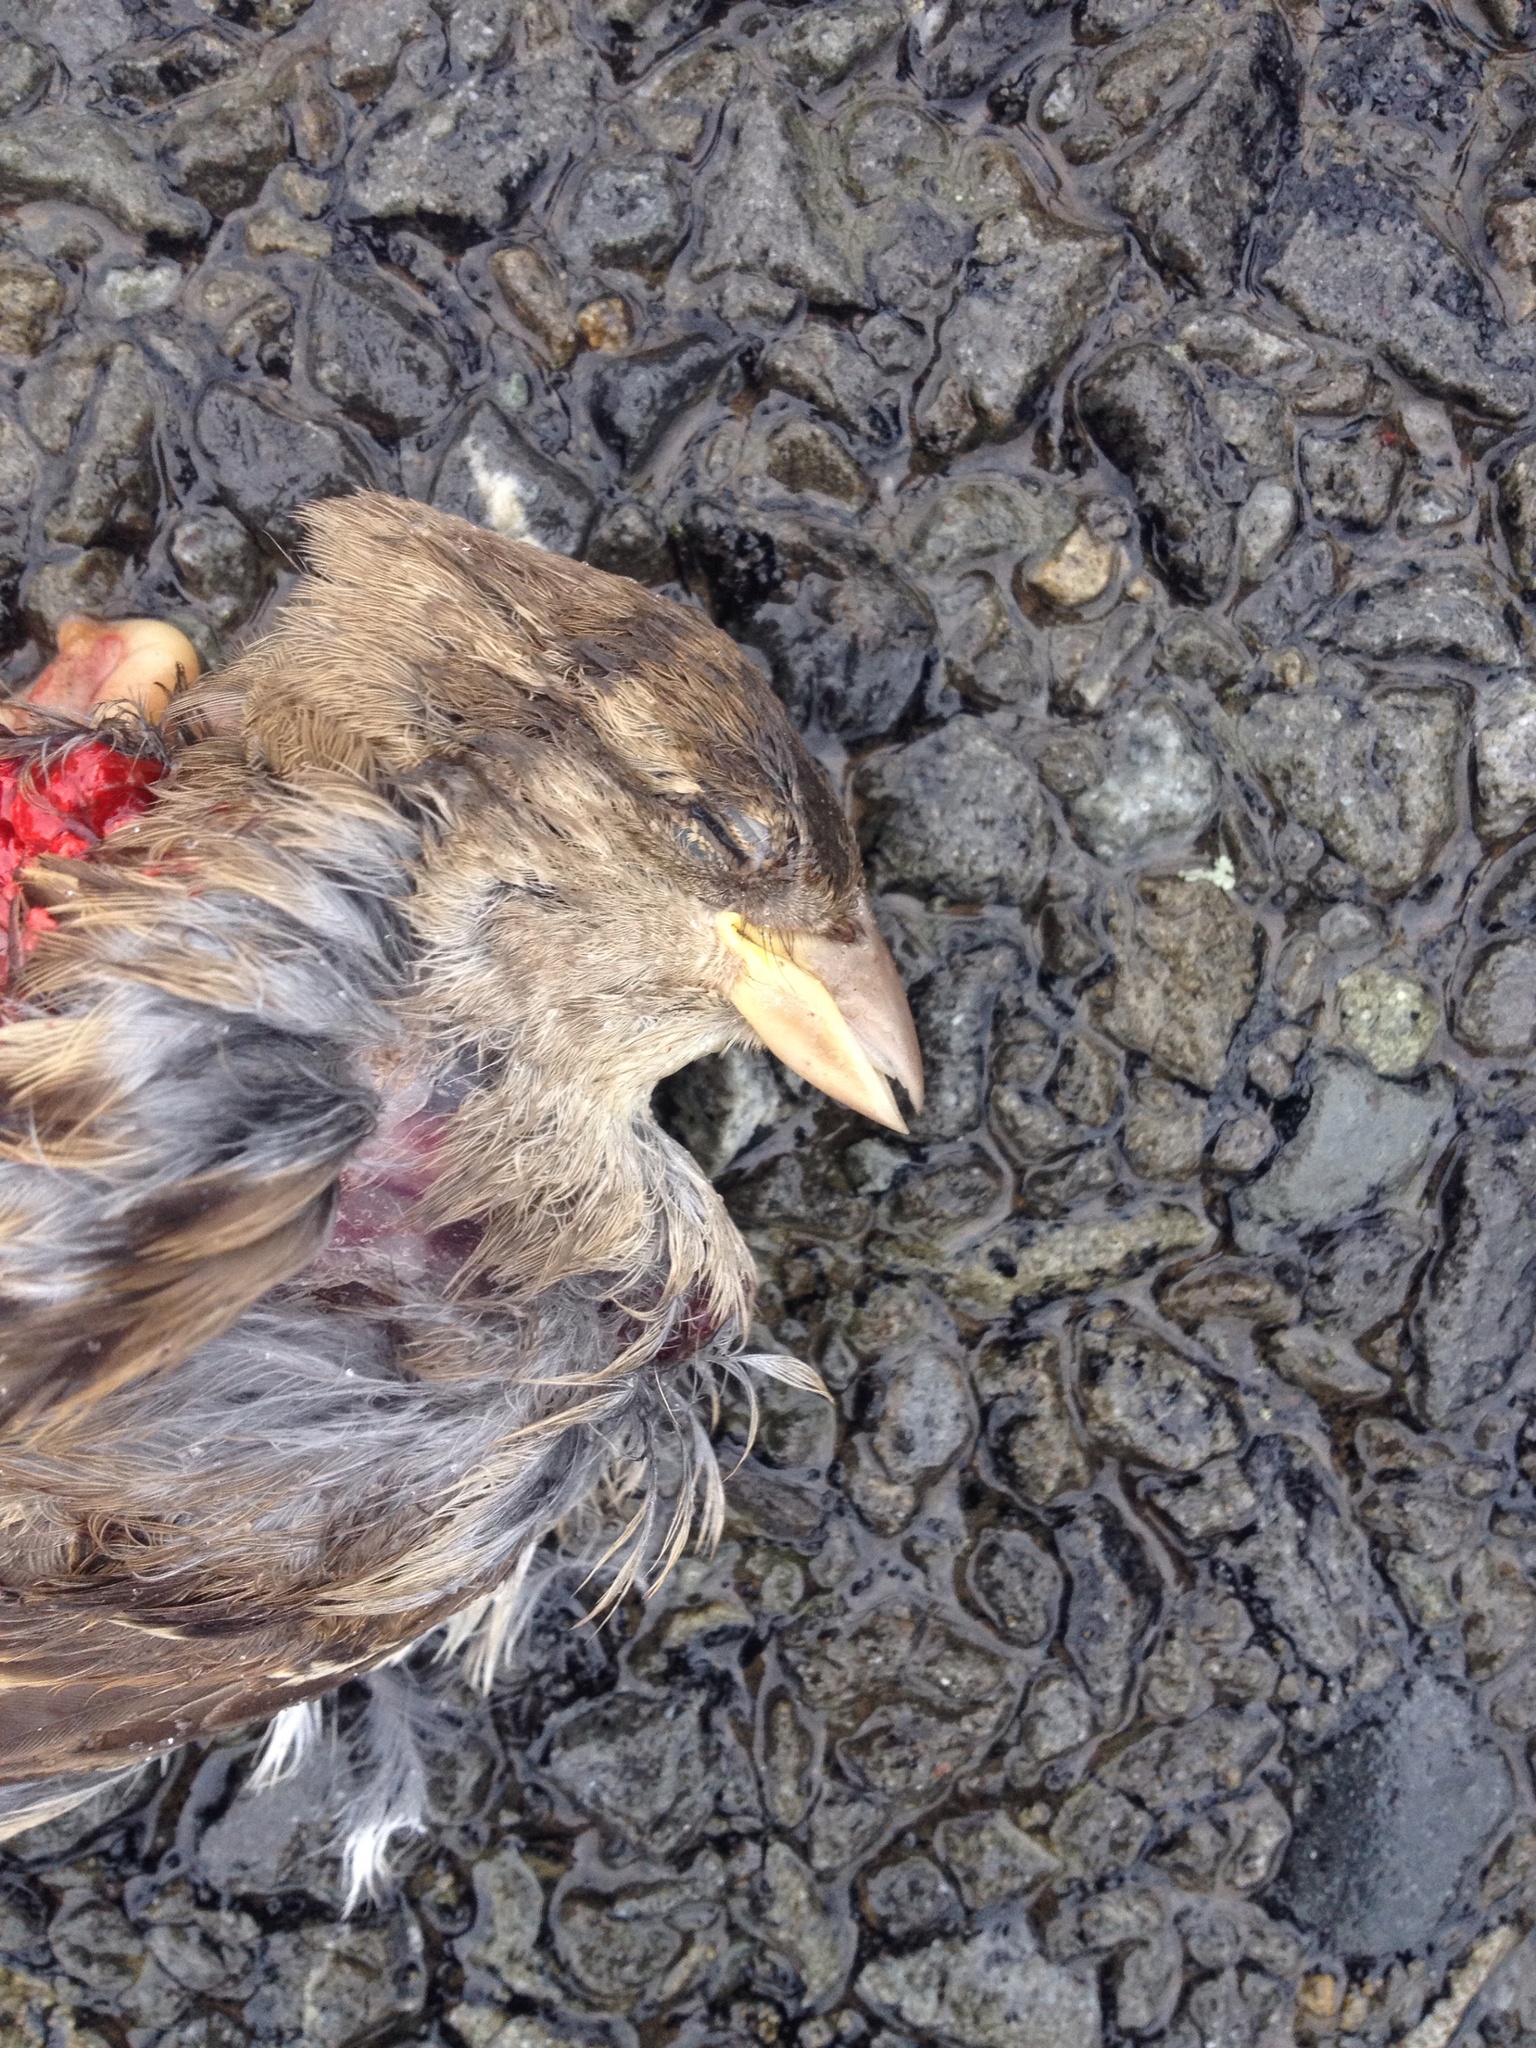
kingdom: Animalia
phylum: Chordata
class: Aves
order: Passeriformes
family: Passeridae
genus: Passer
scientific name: Passer domesticus
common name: House sparrow
